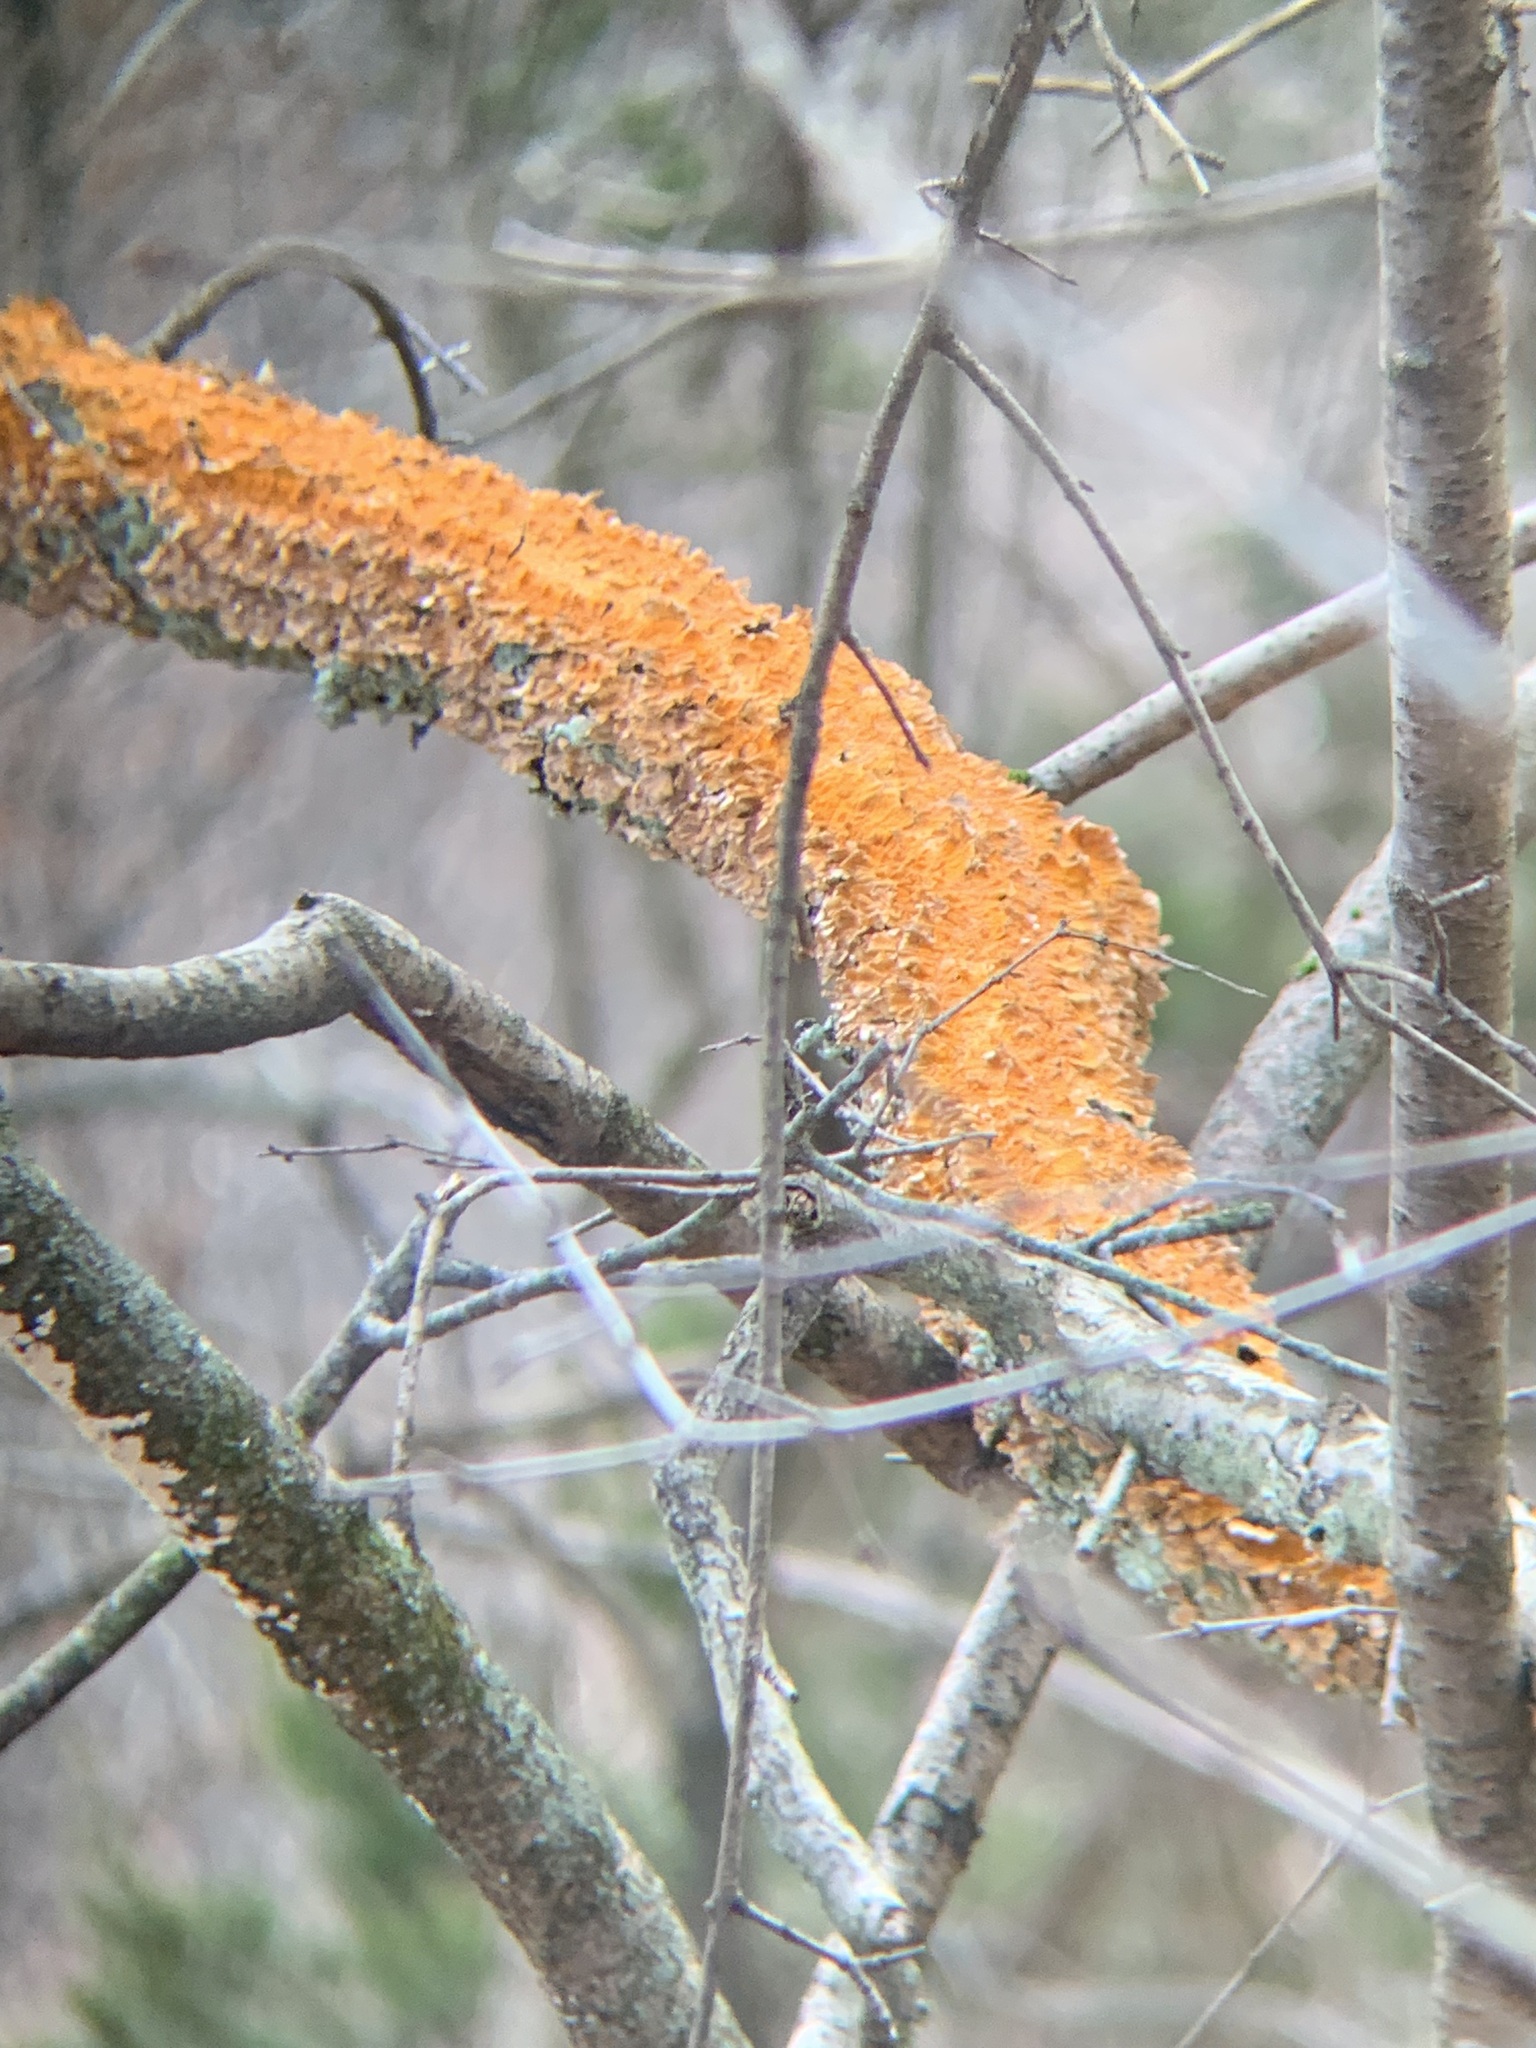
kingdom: Fungi
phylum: Basidiomycota
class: Agaricomycetes
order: Russulales
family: Stereaceae
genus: Stereum
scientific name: Stereum complicatum
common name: Crowded parchment
